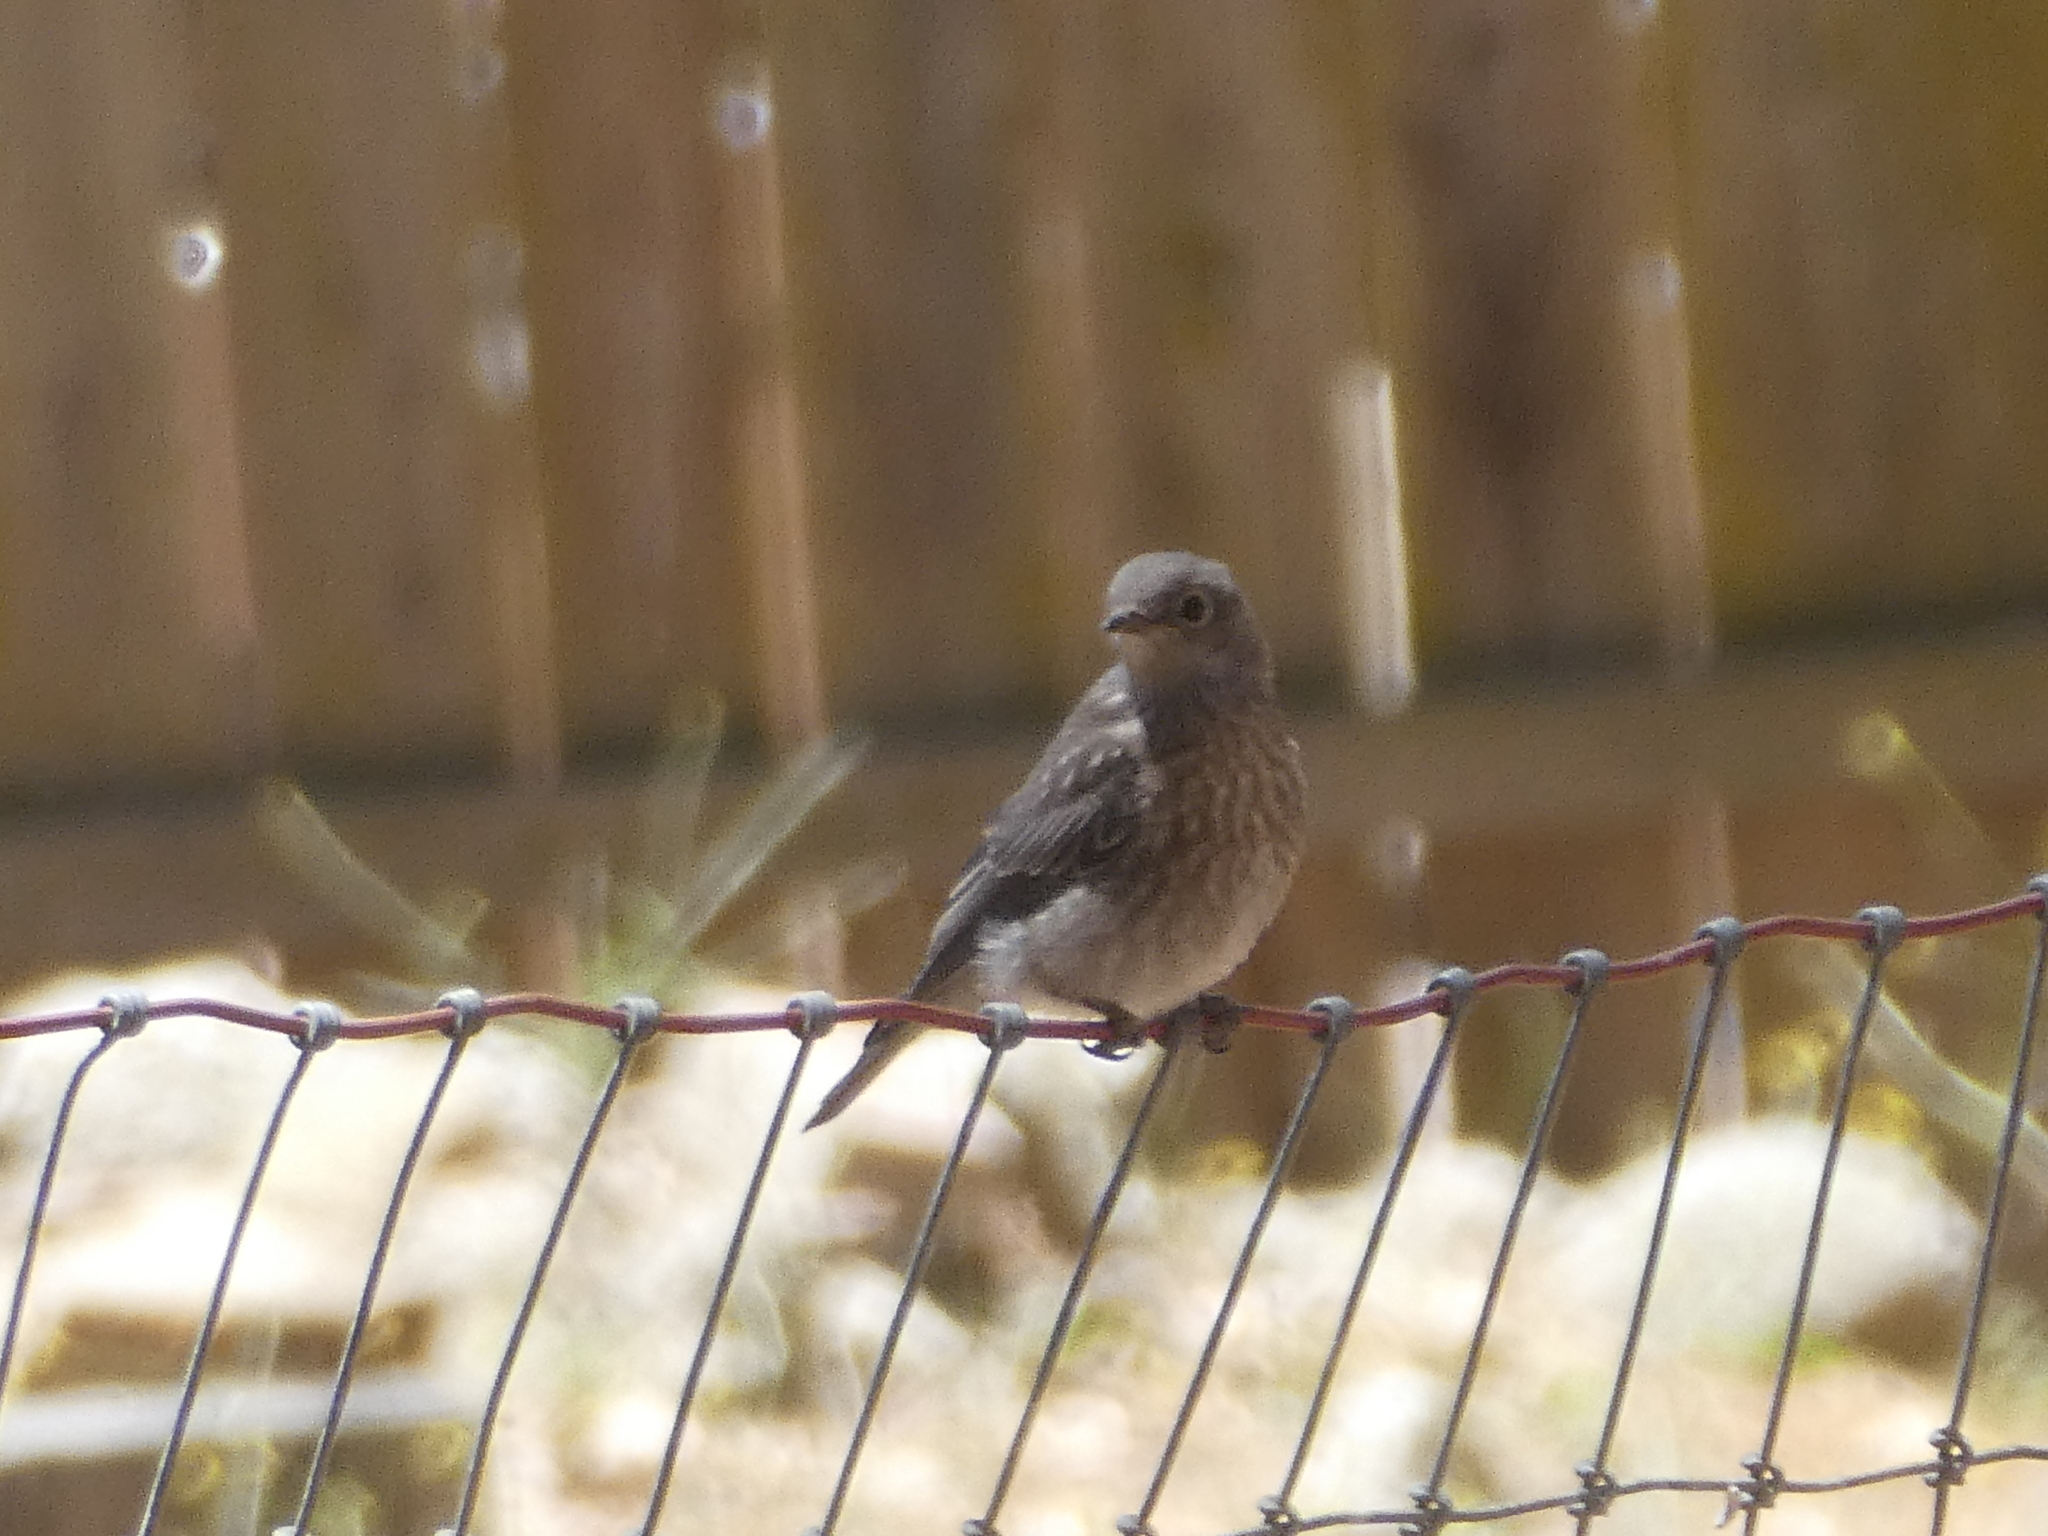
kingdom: Animalia
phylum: Chordata
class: Aves
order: Passeriformes
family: Turdidae
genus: Sialia
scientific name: Sialia mexicana
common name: Western bluebird
